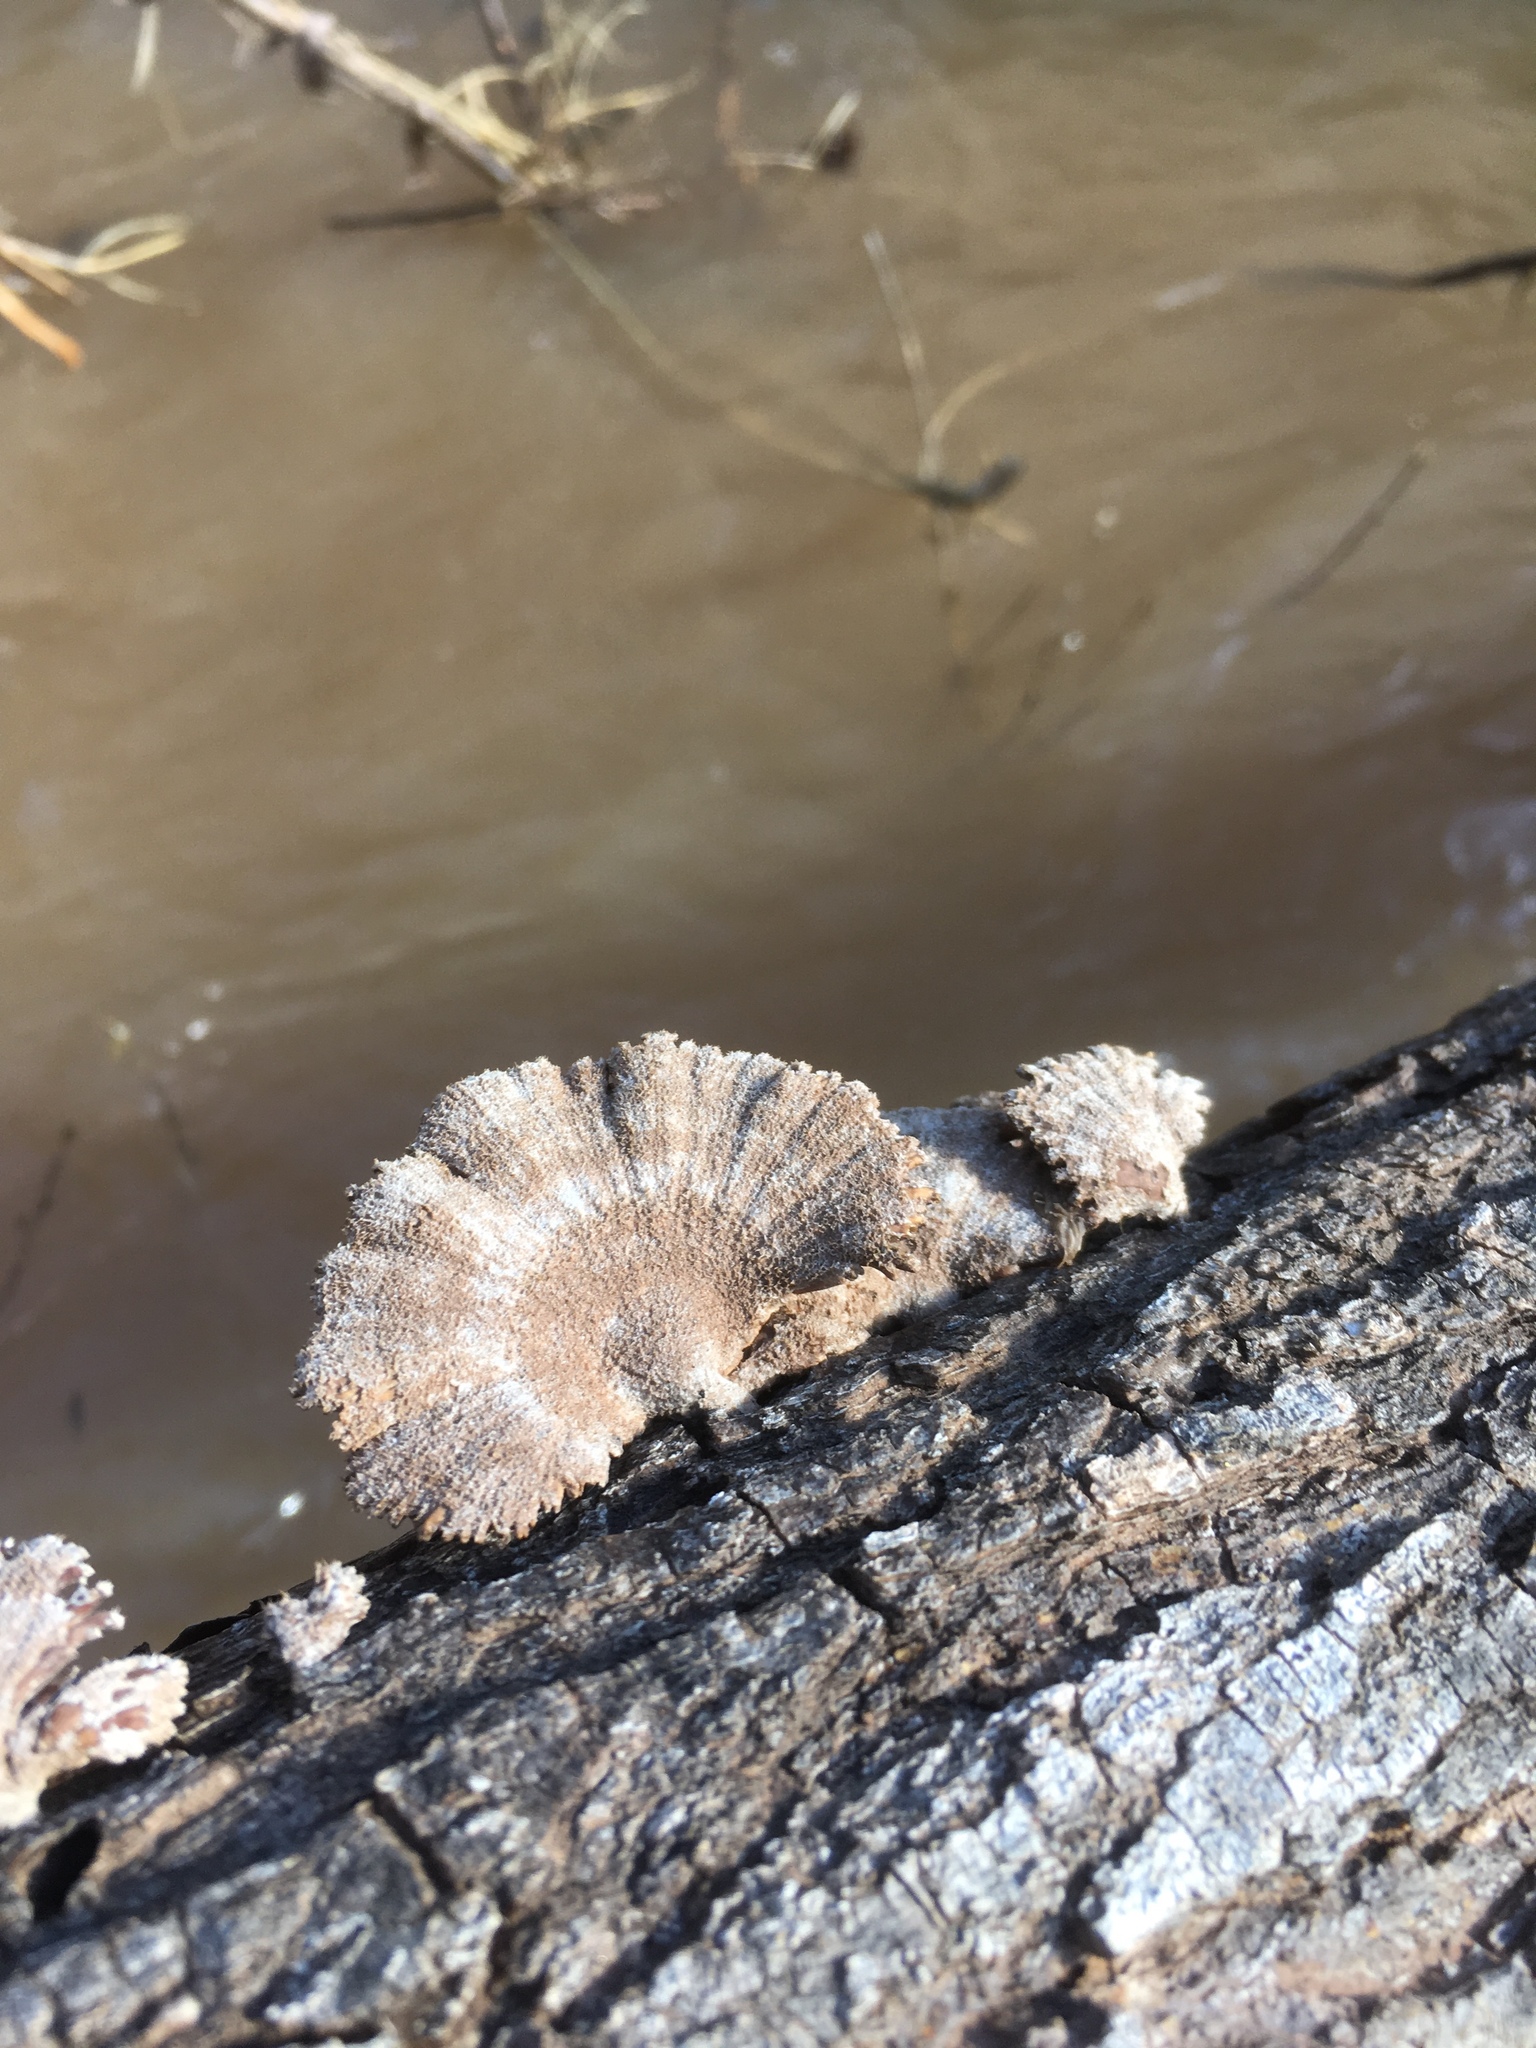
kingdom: Fungi
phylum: Basidiomycota
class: Agaricomycetes
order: Agaricales
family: Schizophyllaceae
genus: Schizophyllum
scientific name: Schizophyllum commune
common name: Common porecrust
